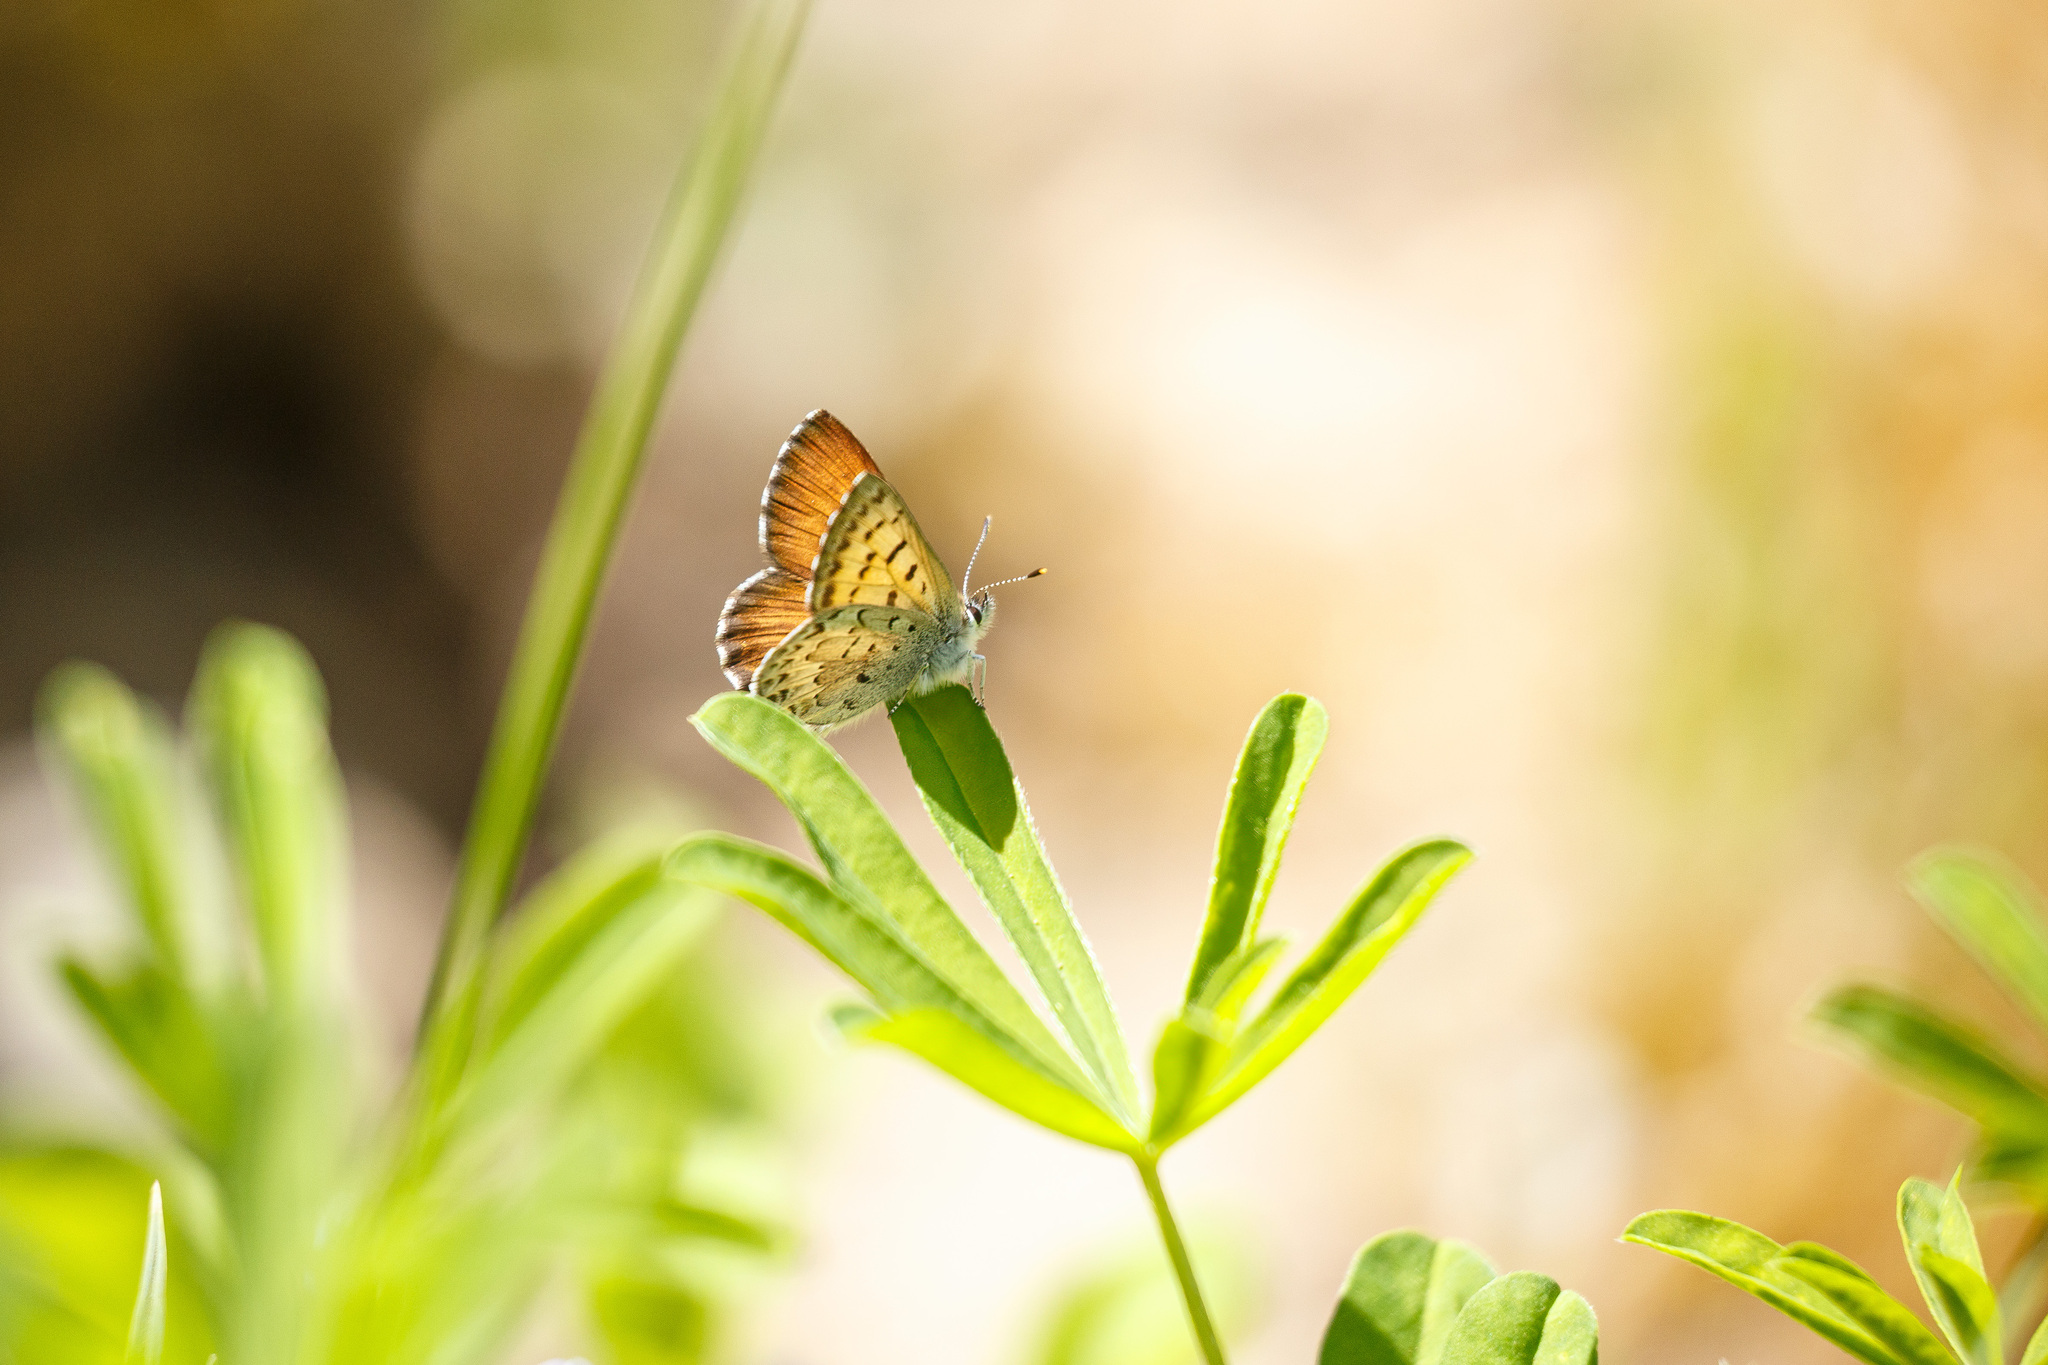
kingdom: Animalia
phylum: Arthropoda
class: Insecta
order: Lepidoptera
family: Lycaenidae
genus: Tharsalea
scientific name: Tharsalea mariposa
